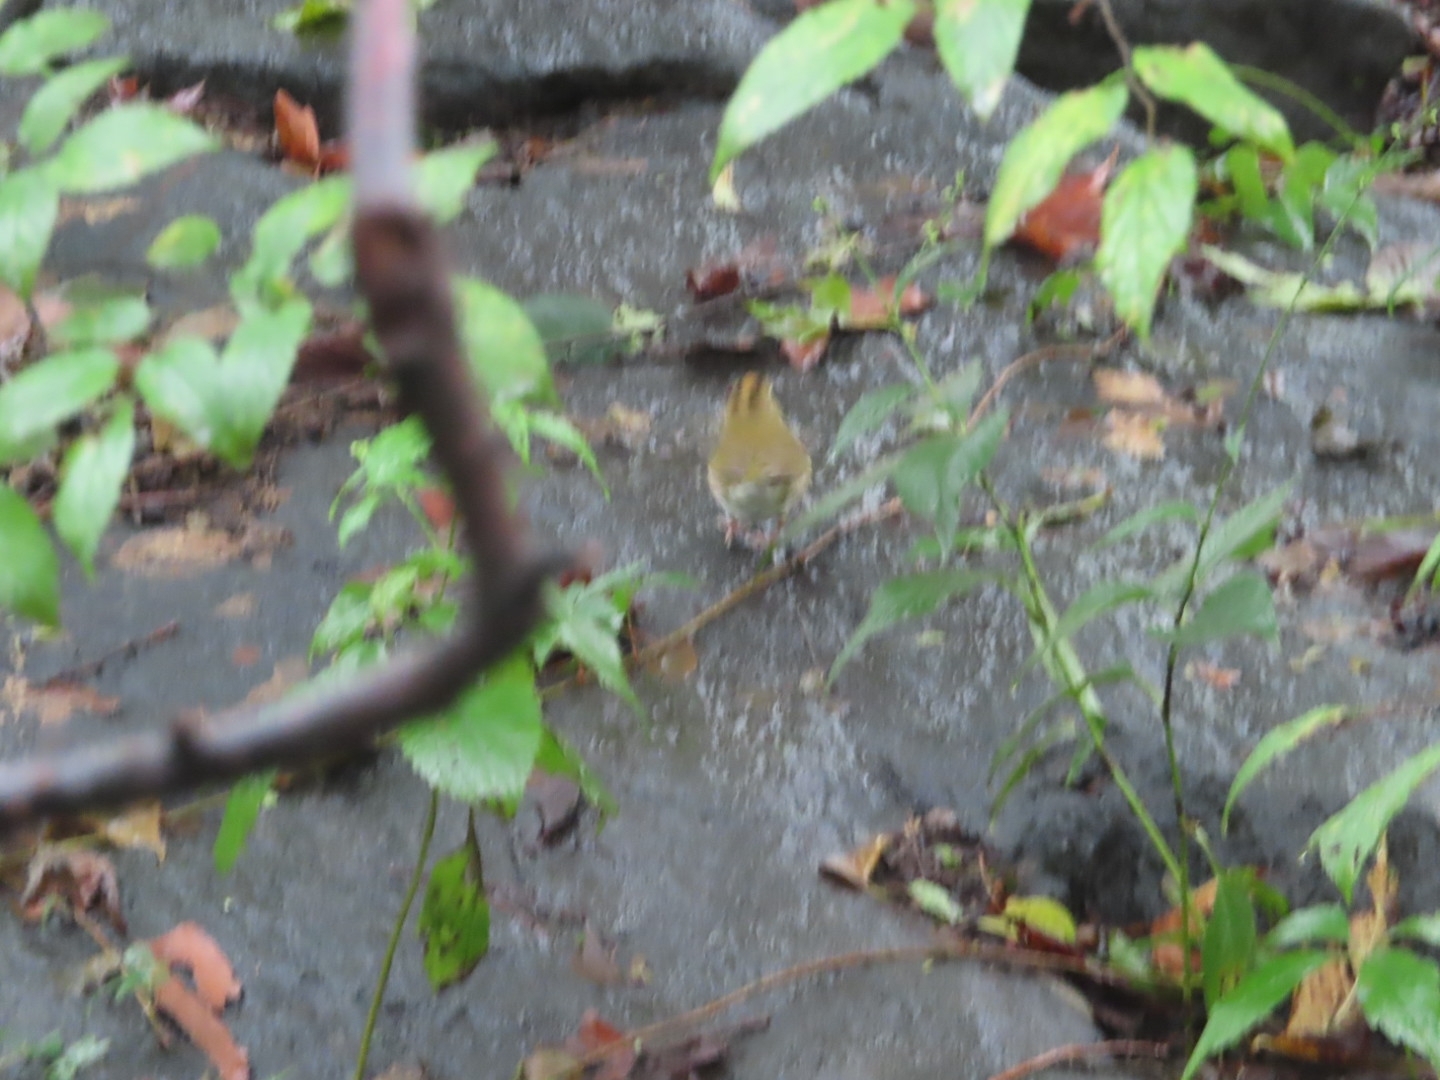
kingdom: Animalia
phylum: Chordata
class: Aves
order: Passeriformes
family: Parulidae
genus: Seiurus
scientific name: Seiurus aurocapilla
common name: Ovenbird
